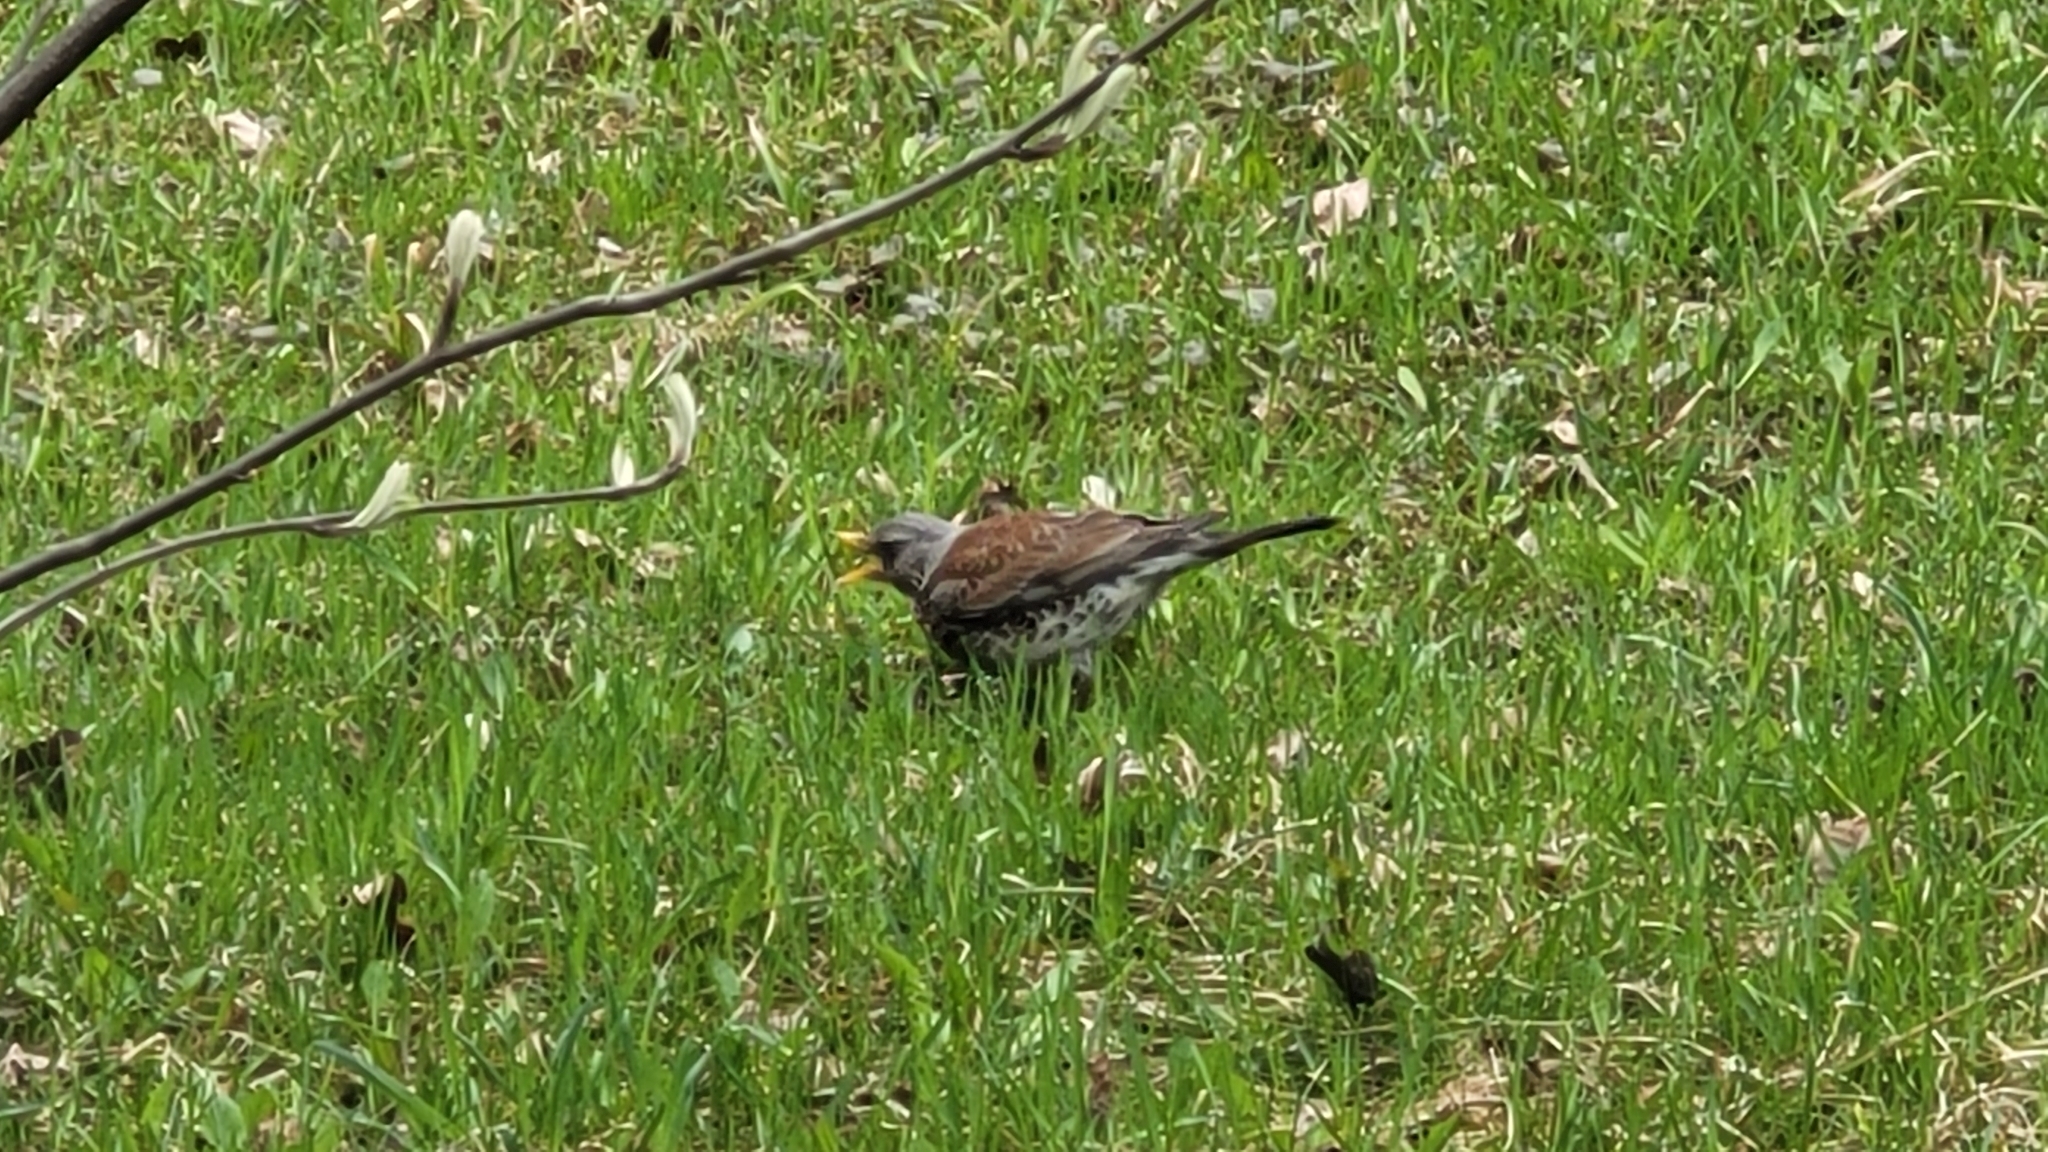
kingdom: Animalia
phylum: Chordata
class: Aves
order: Passeriformes
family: Turdidae
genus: Turdus
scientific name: Turdus pilaris
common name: Fieldfare
